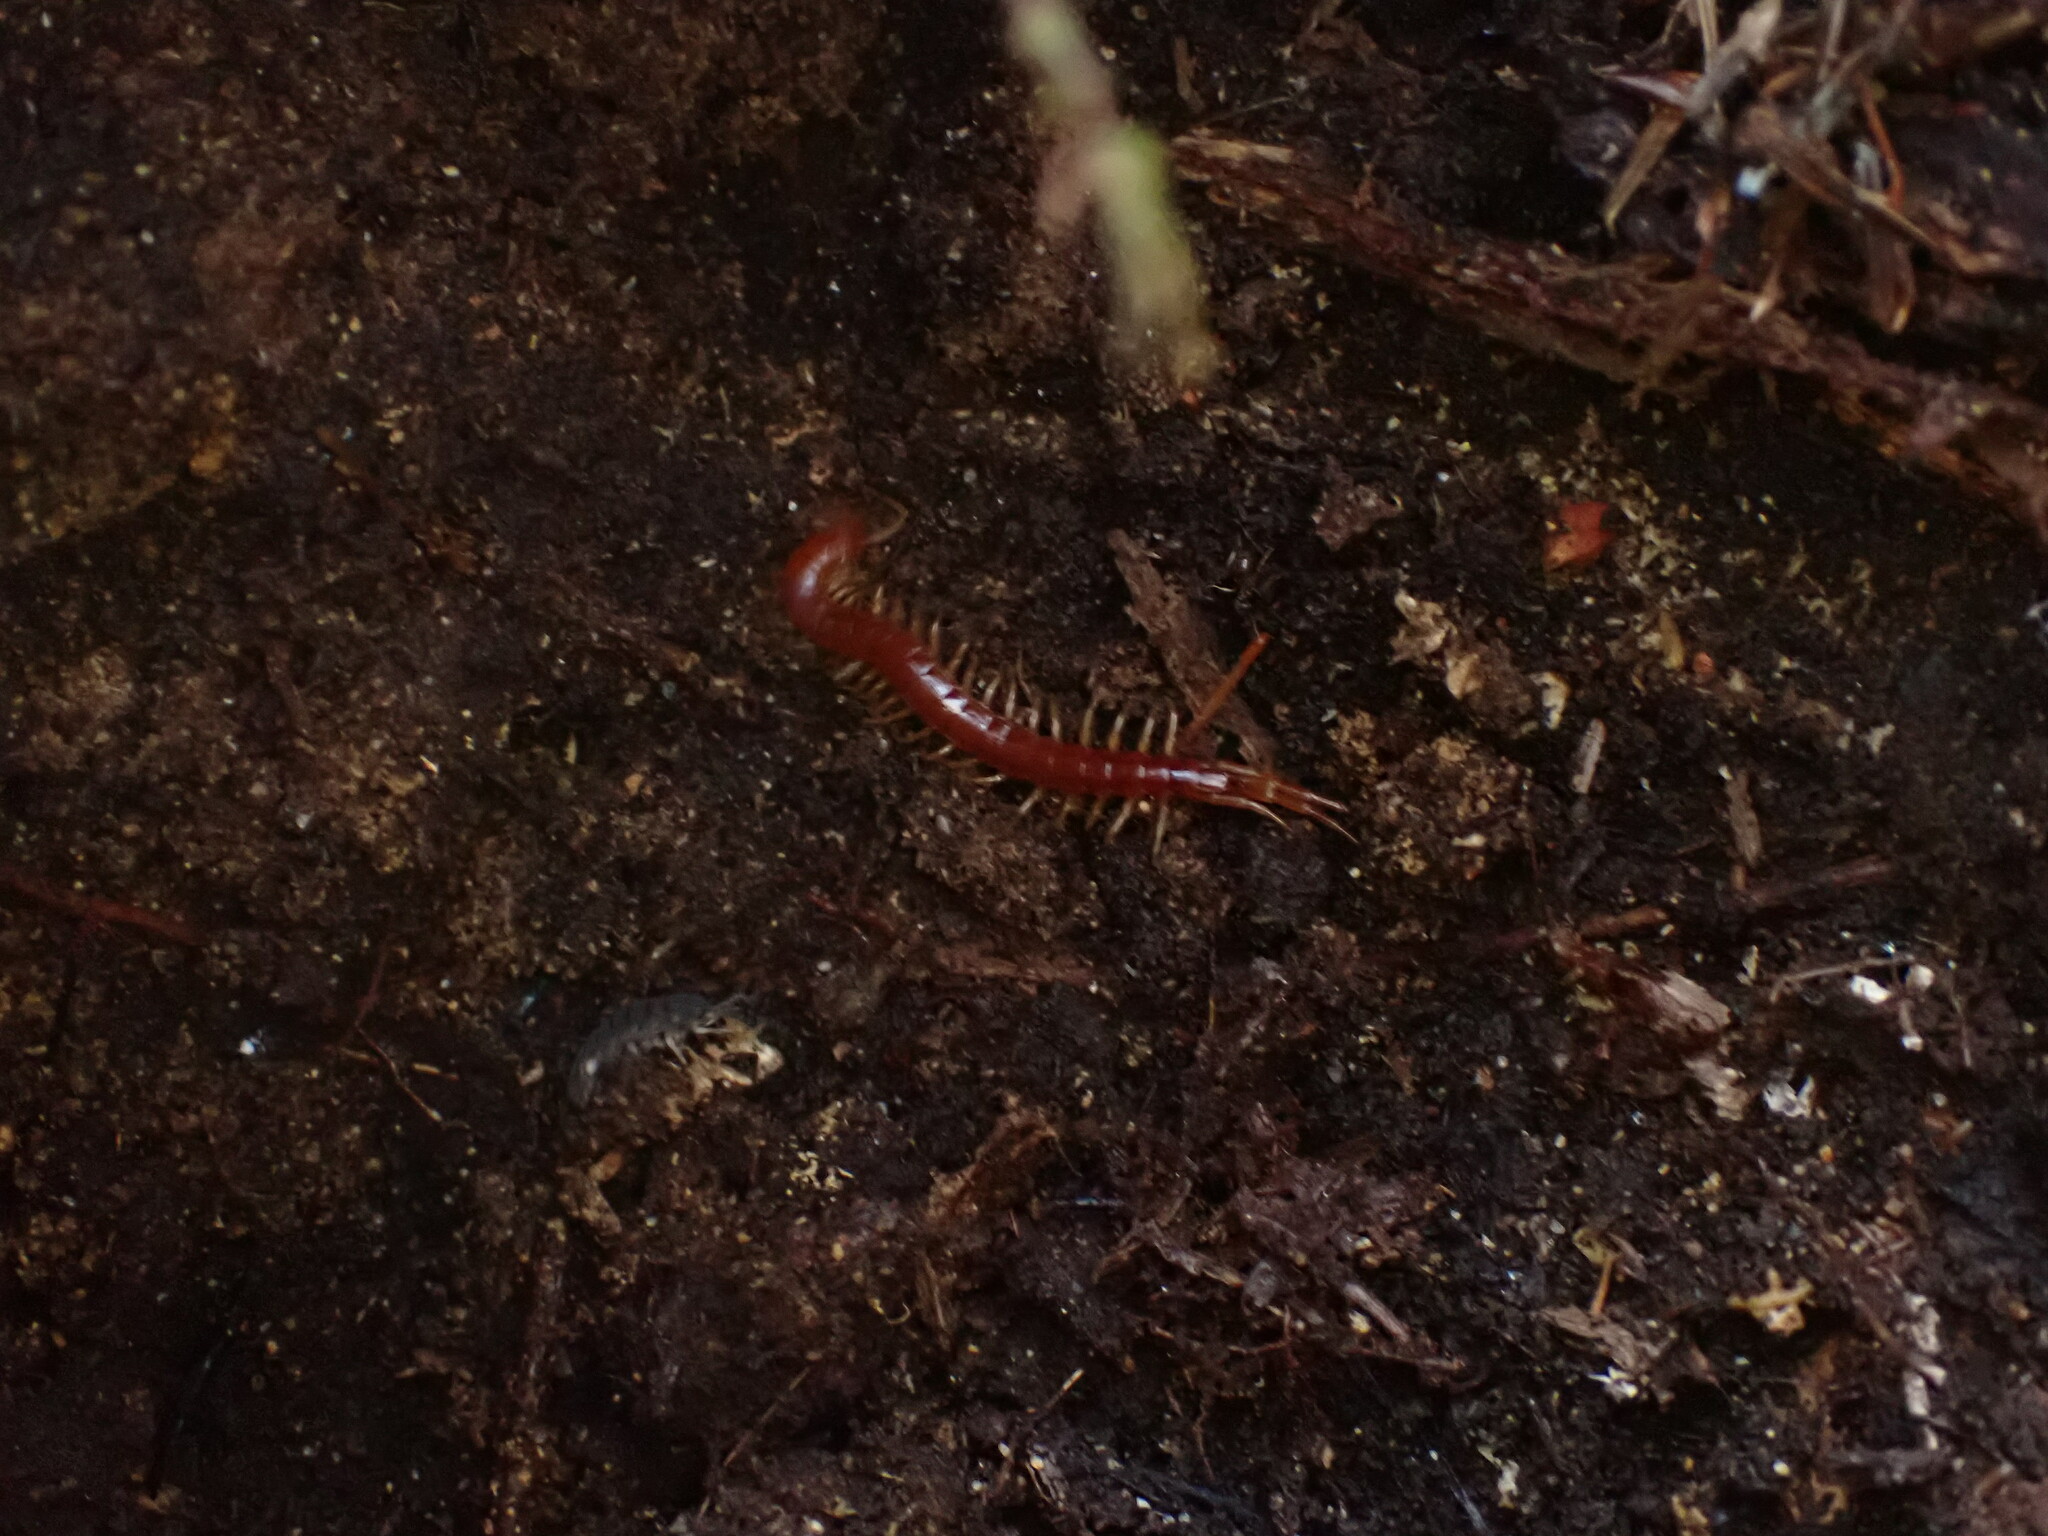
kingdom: Animalia
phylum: Arthropoda
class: Chilopoda
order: Scolopendromorpha
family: Scolopocryptopidae
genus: Scolopocryptops
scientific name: Scolopocryptops spinicaudus
